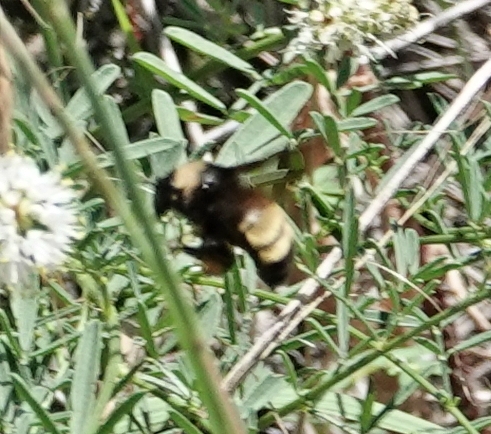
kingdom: Animalia
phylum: Arthropoda
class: Insecta
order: Hymenoptera
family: Apidae
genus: Bombus
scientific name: Bombus pensylvanicus
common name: Bumble bee
